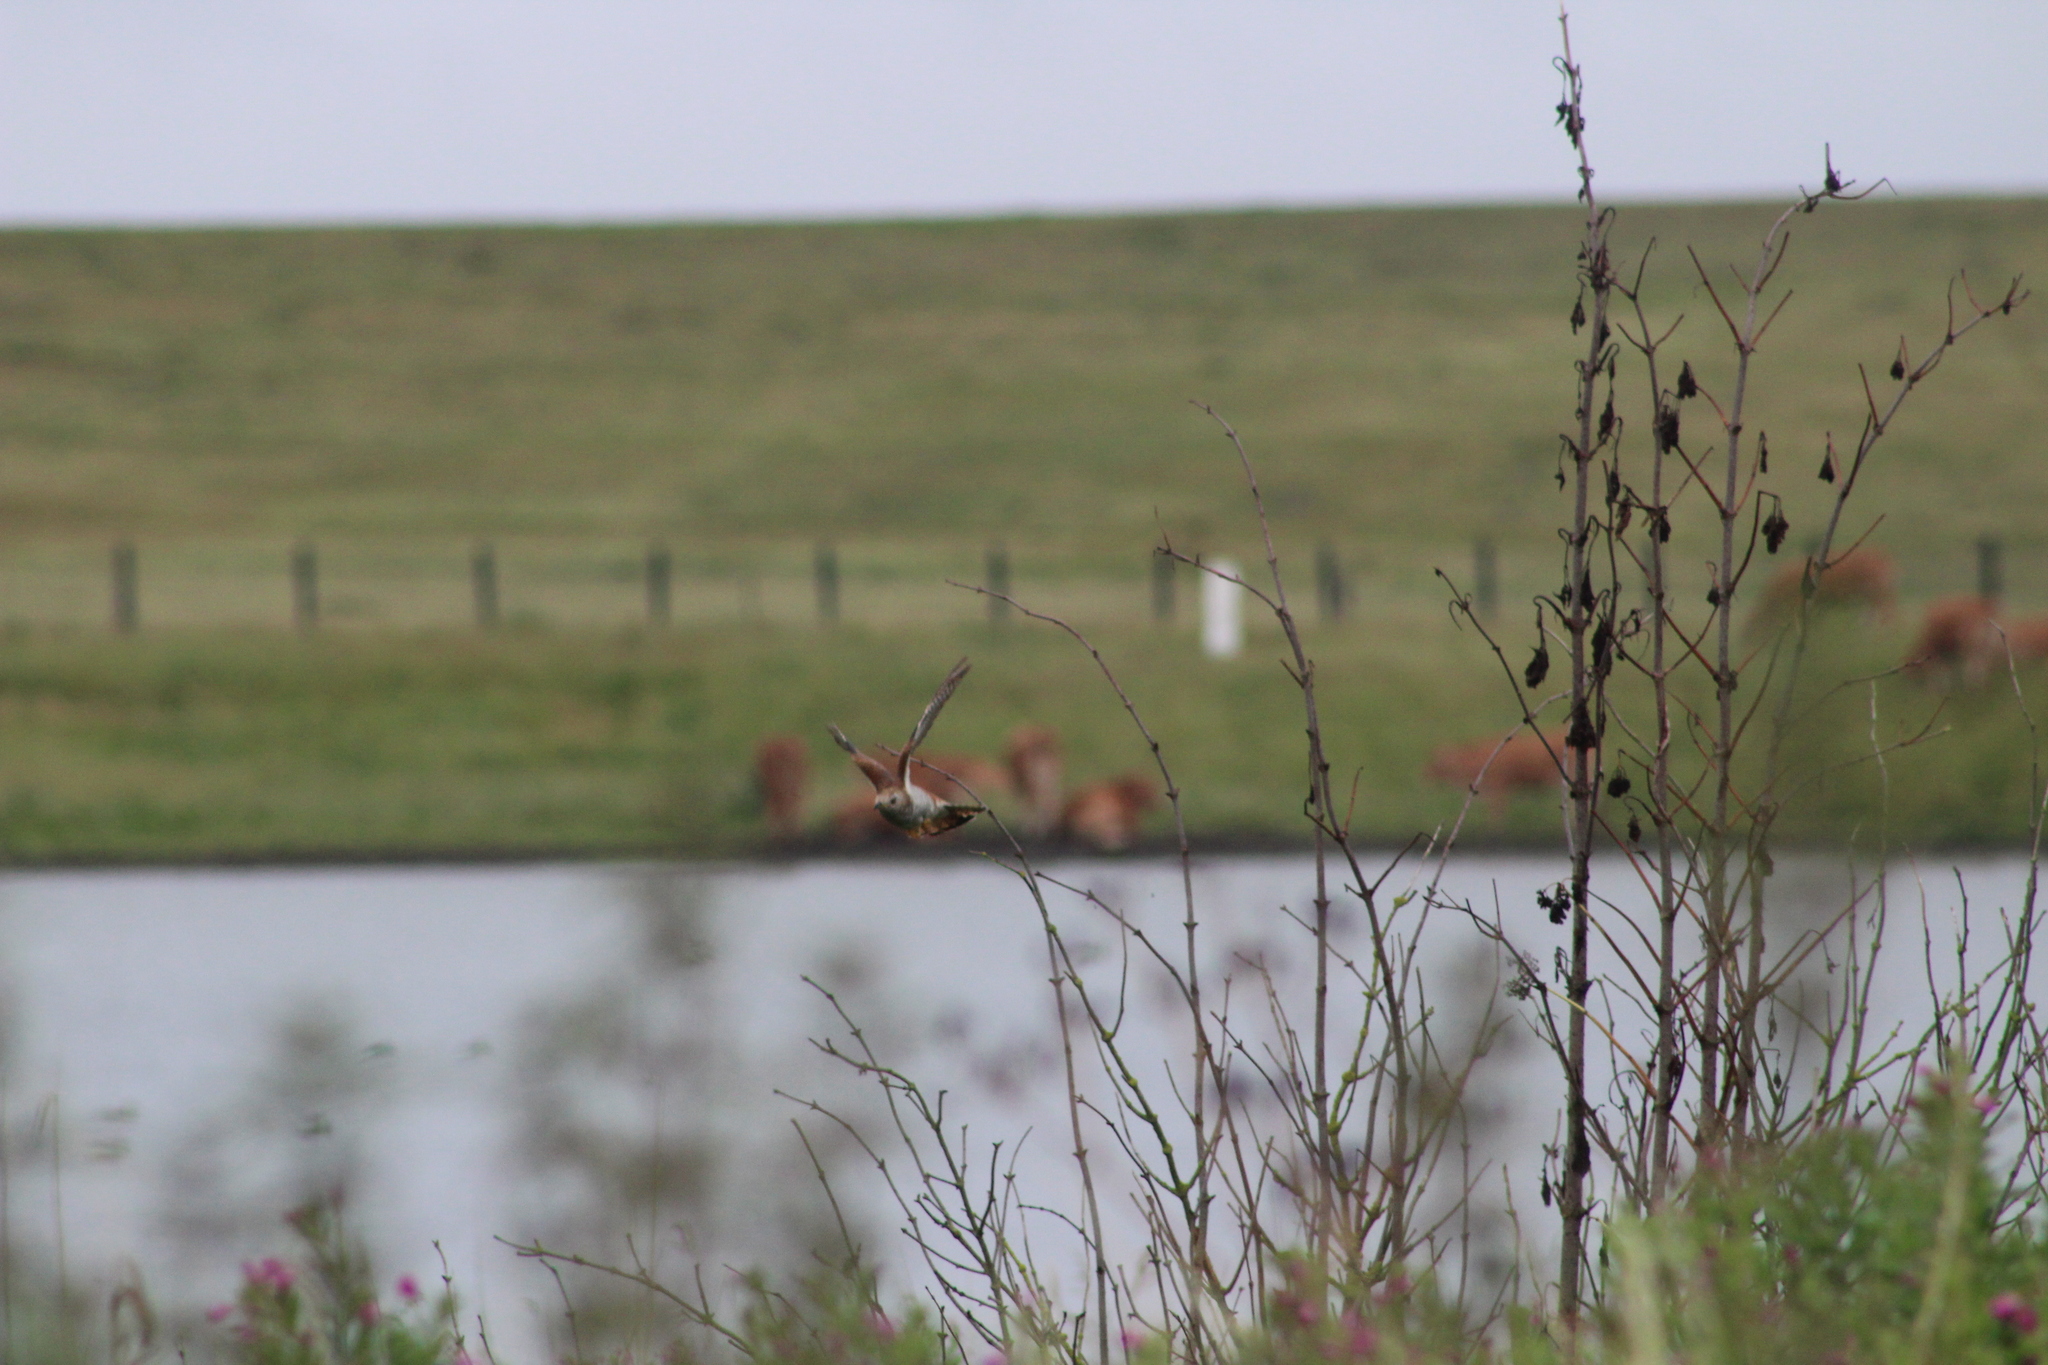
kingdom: Animalia
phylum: Chordata
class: Aves
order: Cuculiformes
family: Cuculidae
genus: Cuculus
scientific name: Cuculus canorus
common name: Common cuckoo
